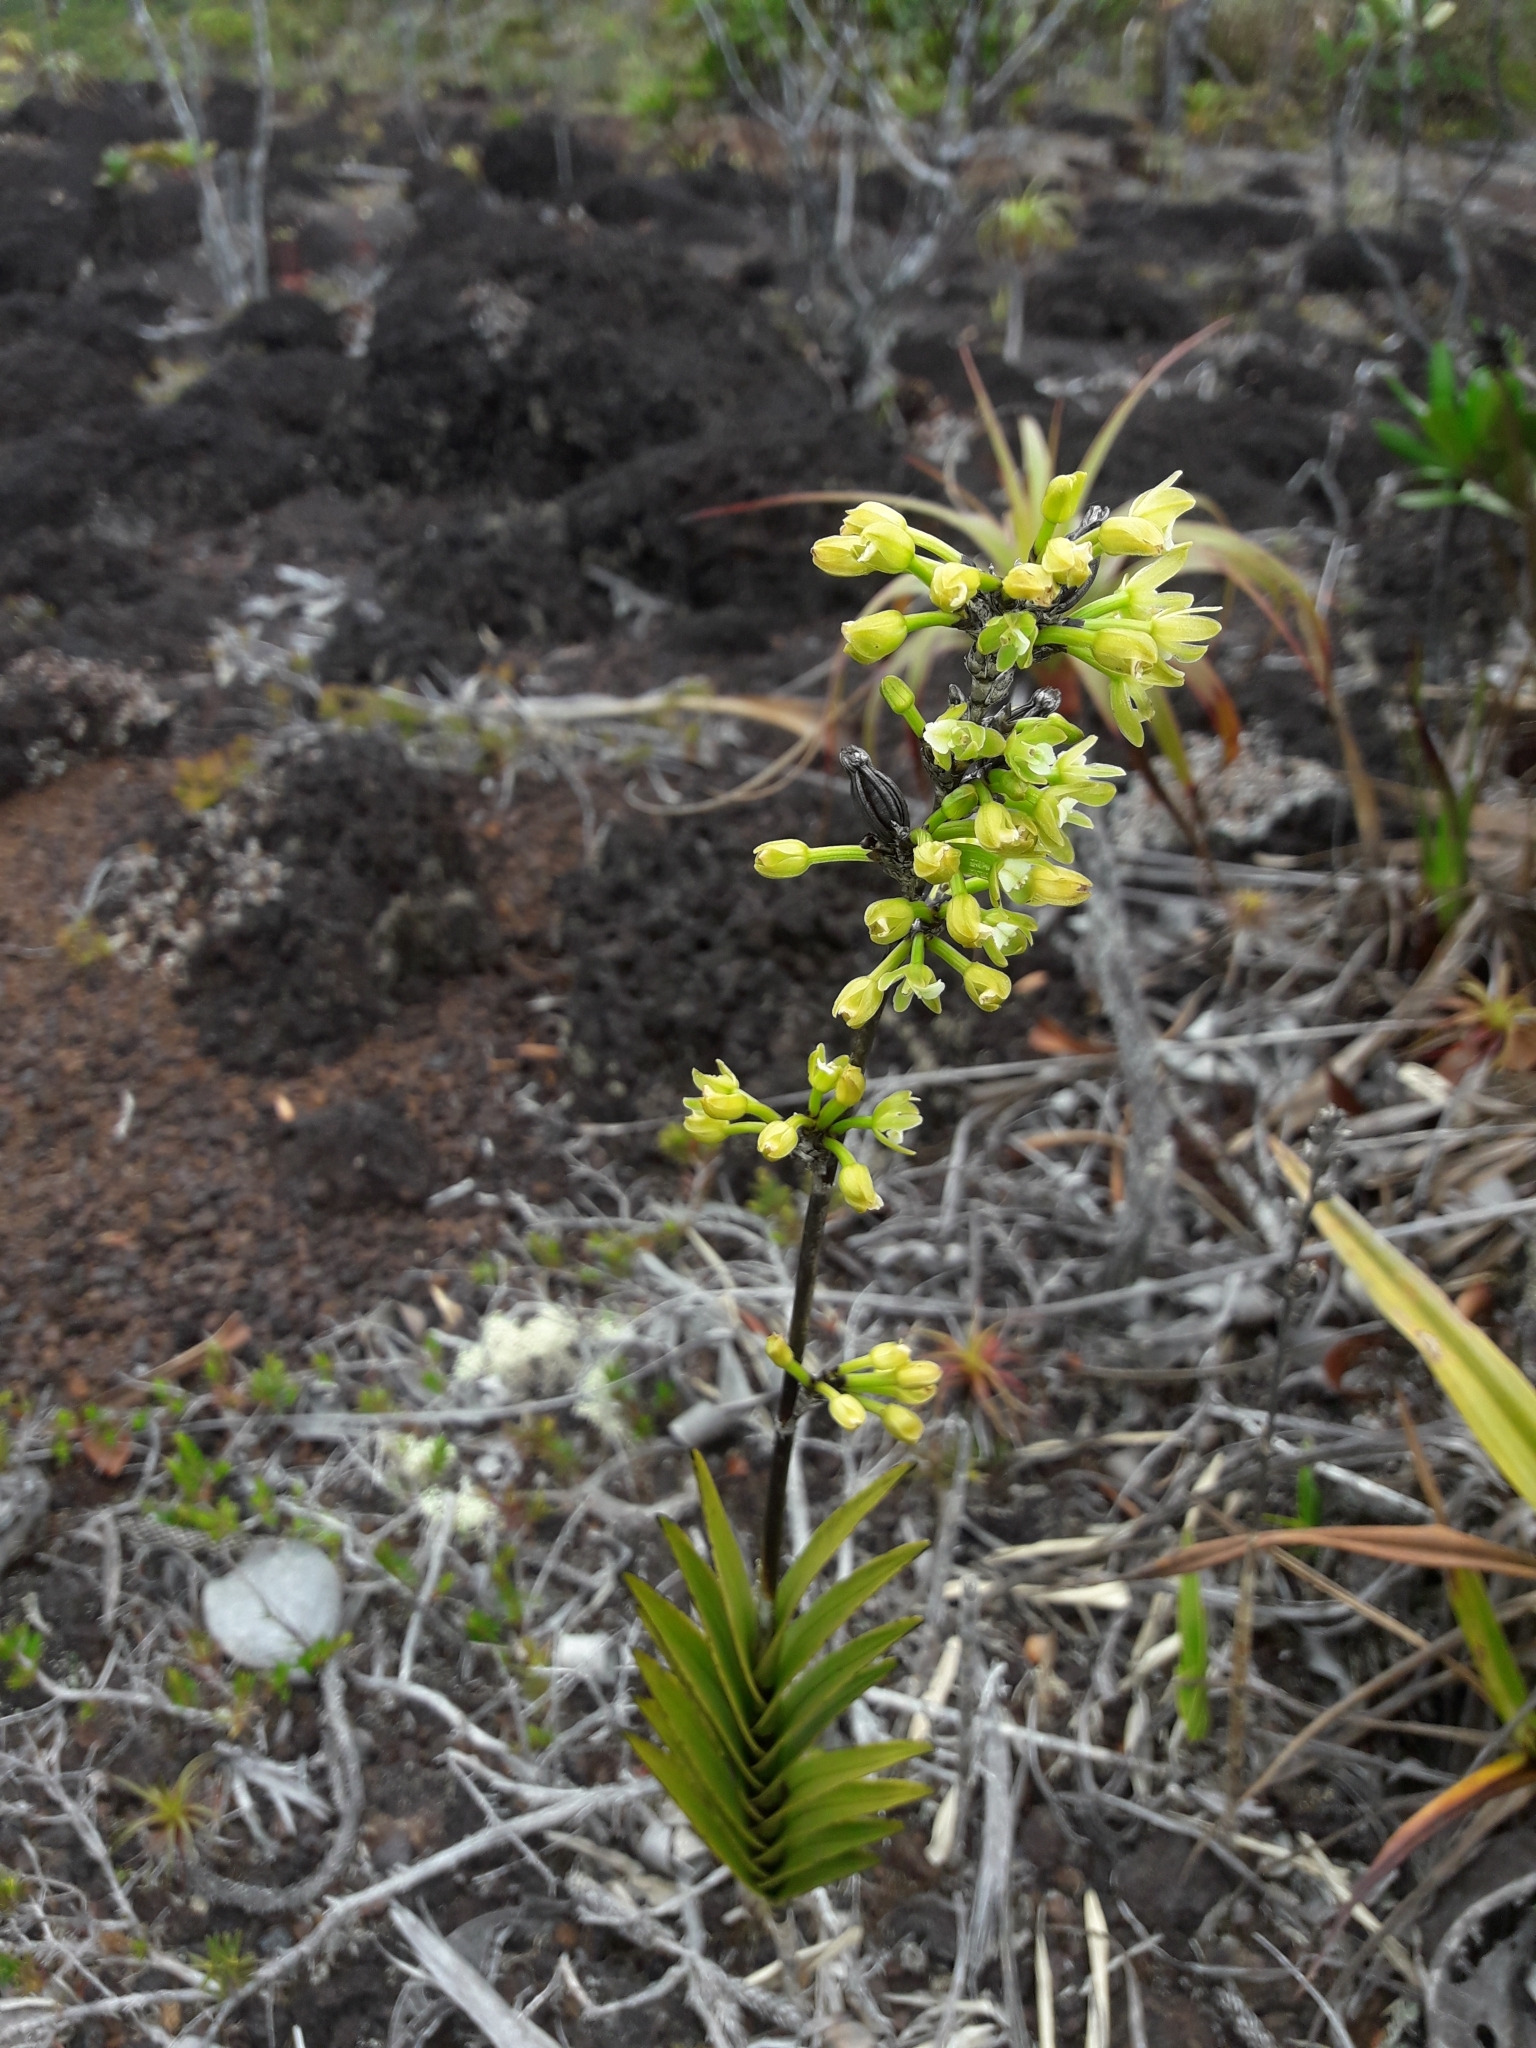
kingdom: Plantae
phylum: Tracheophyta
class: Liliopsida
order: Asparagales
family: Orchidaceae
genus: Earina
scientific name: Earina deplanchei
